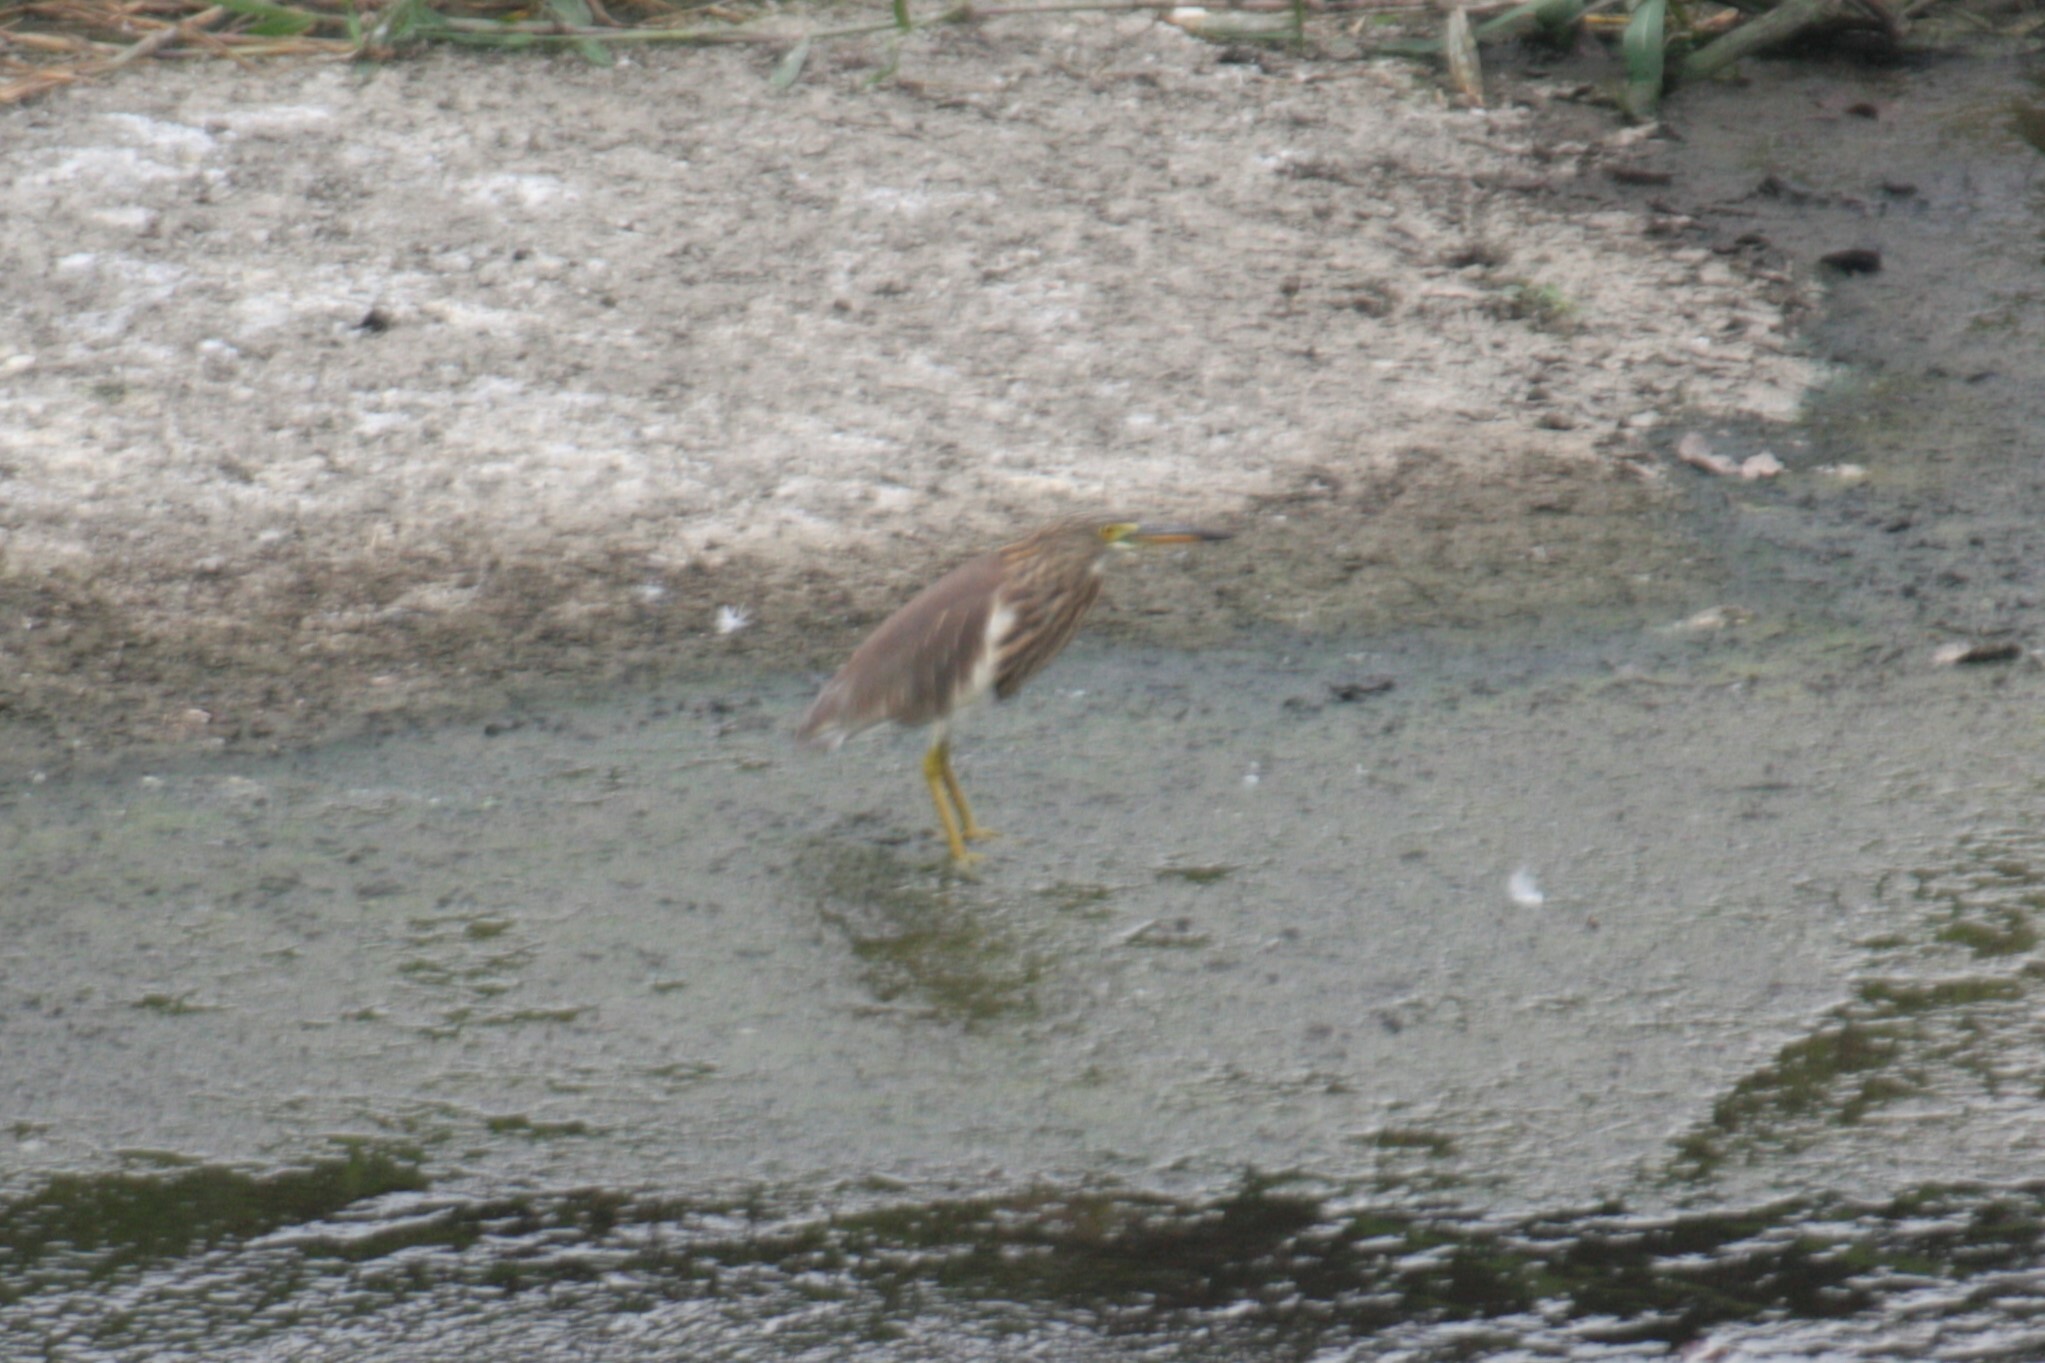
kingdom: Animalia
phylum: Chordata
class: Aves
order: Pelecaniformes
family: Ardeidae
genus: Ardeola
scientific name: Ardeola bacchus
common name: Chinese pond heron
